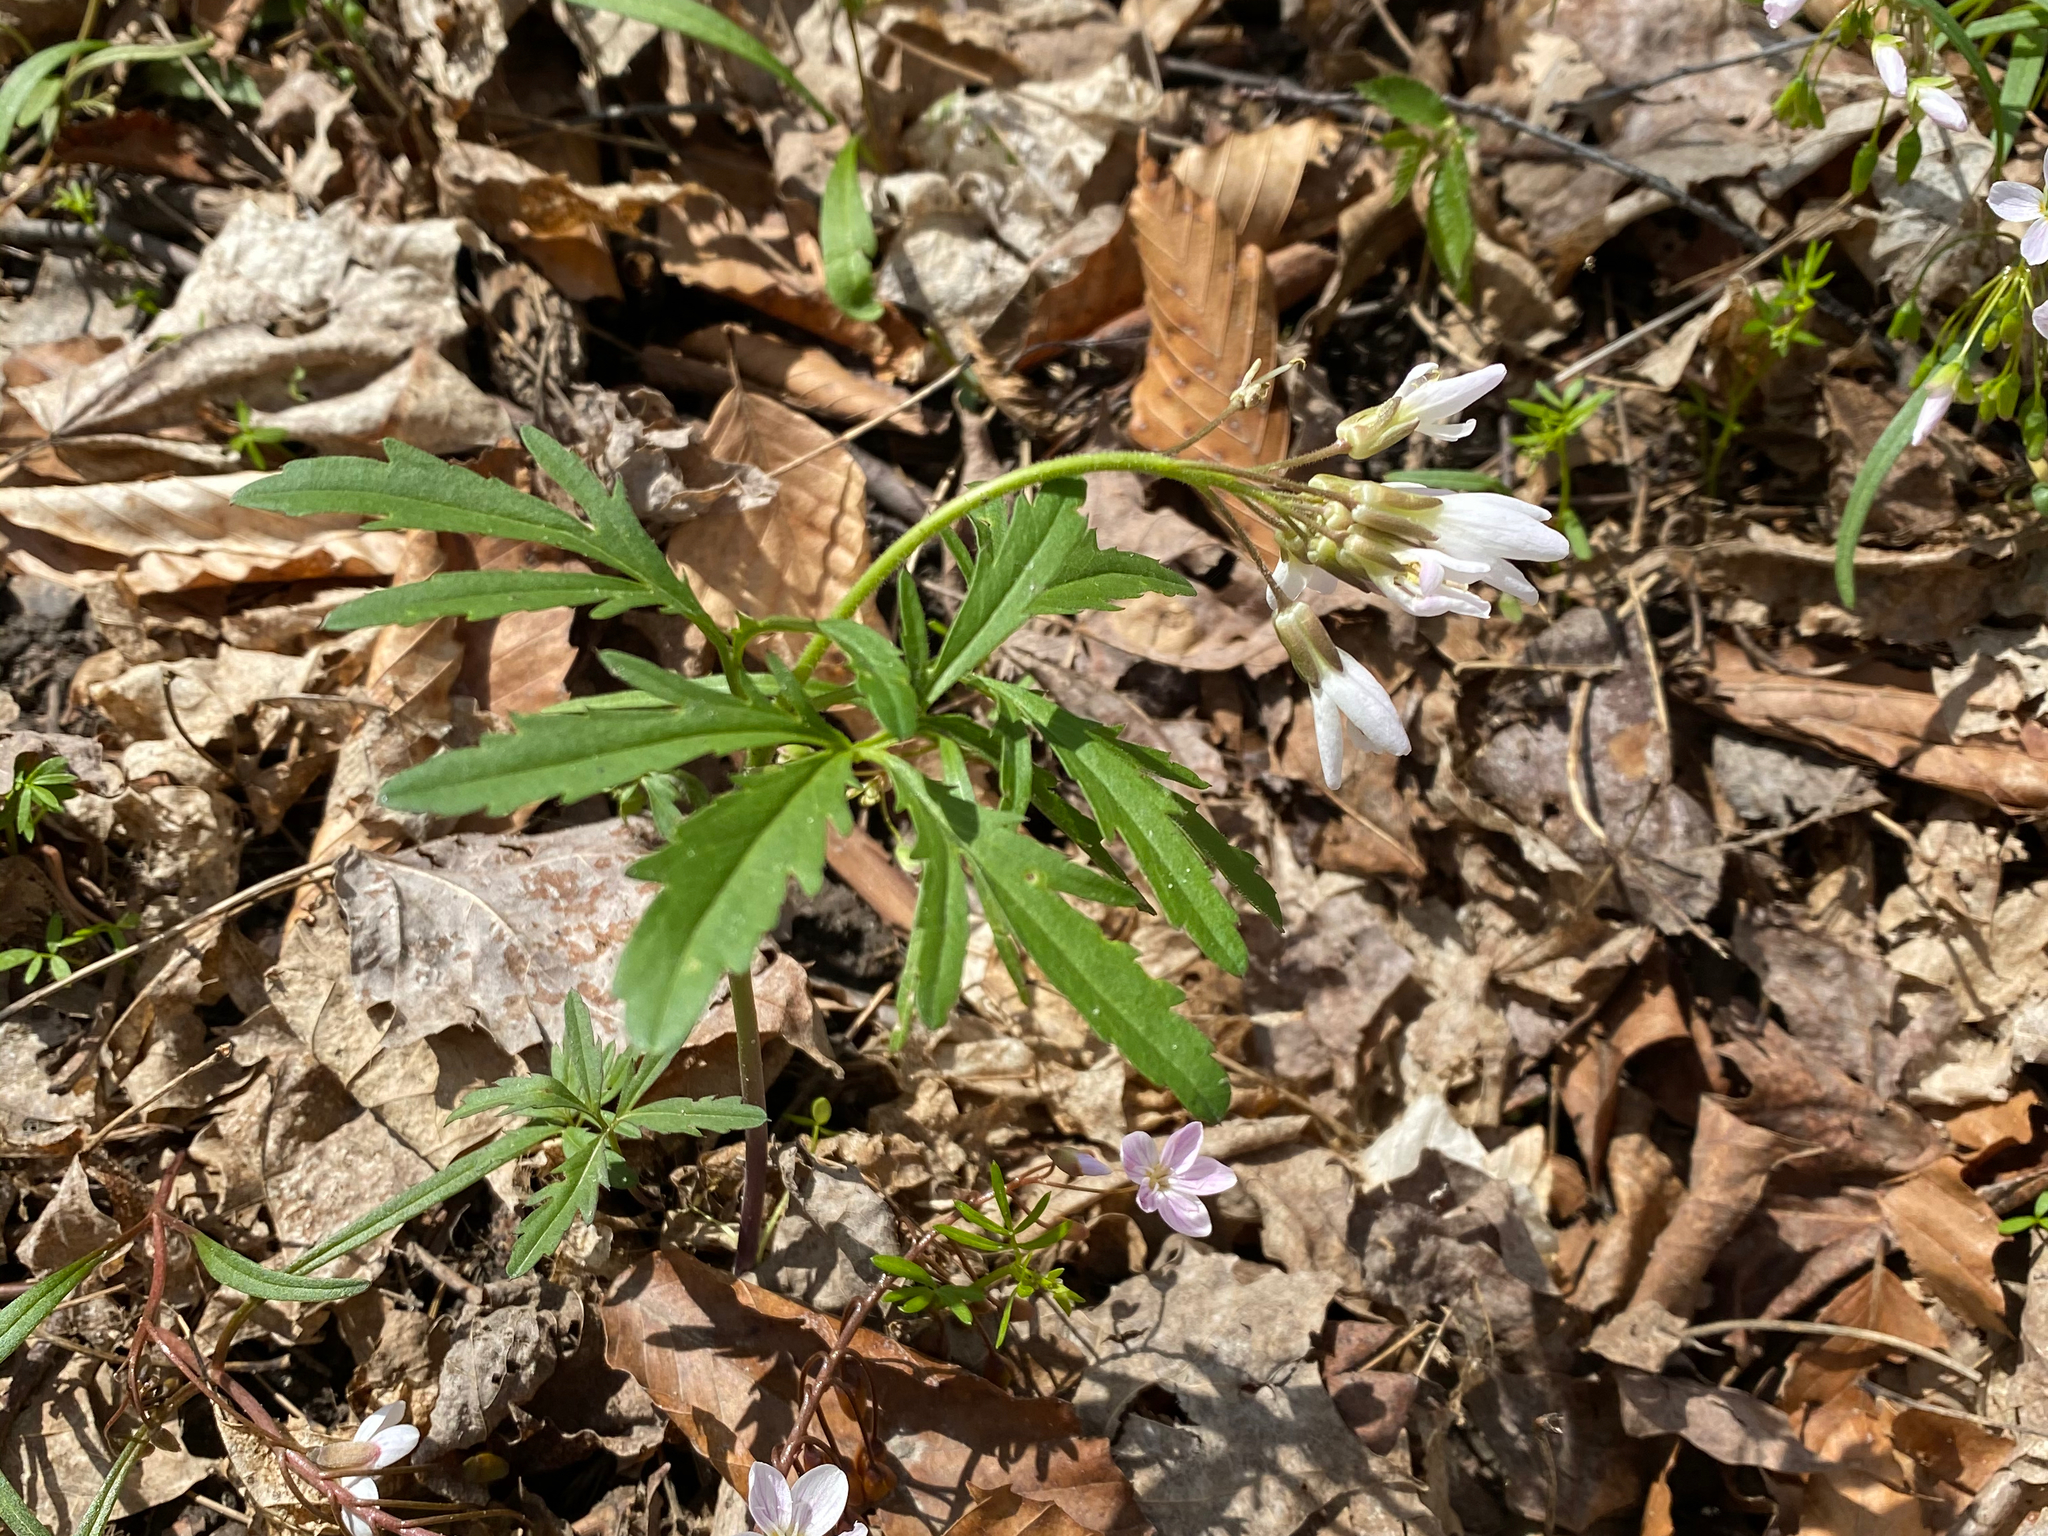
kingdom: Plantae
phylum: Tracheophyta
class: Magnoliopsida
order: Brassicales
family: Brassicaceae
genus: Cardamine
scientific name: Cardamine concatenata
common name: Cut-leaf toothcup
